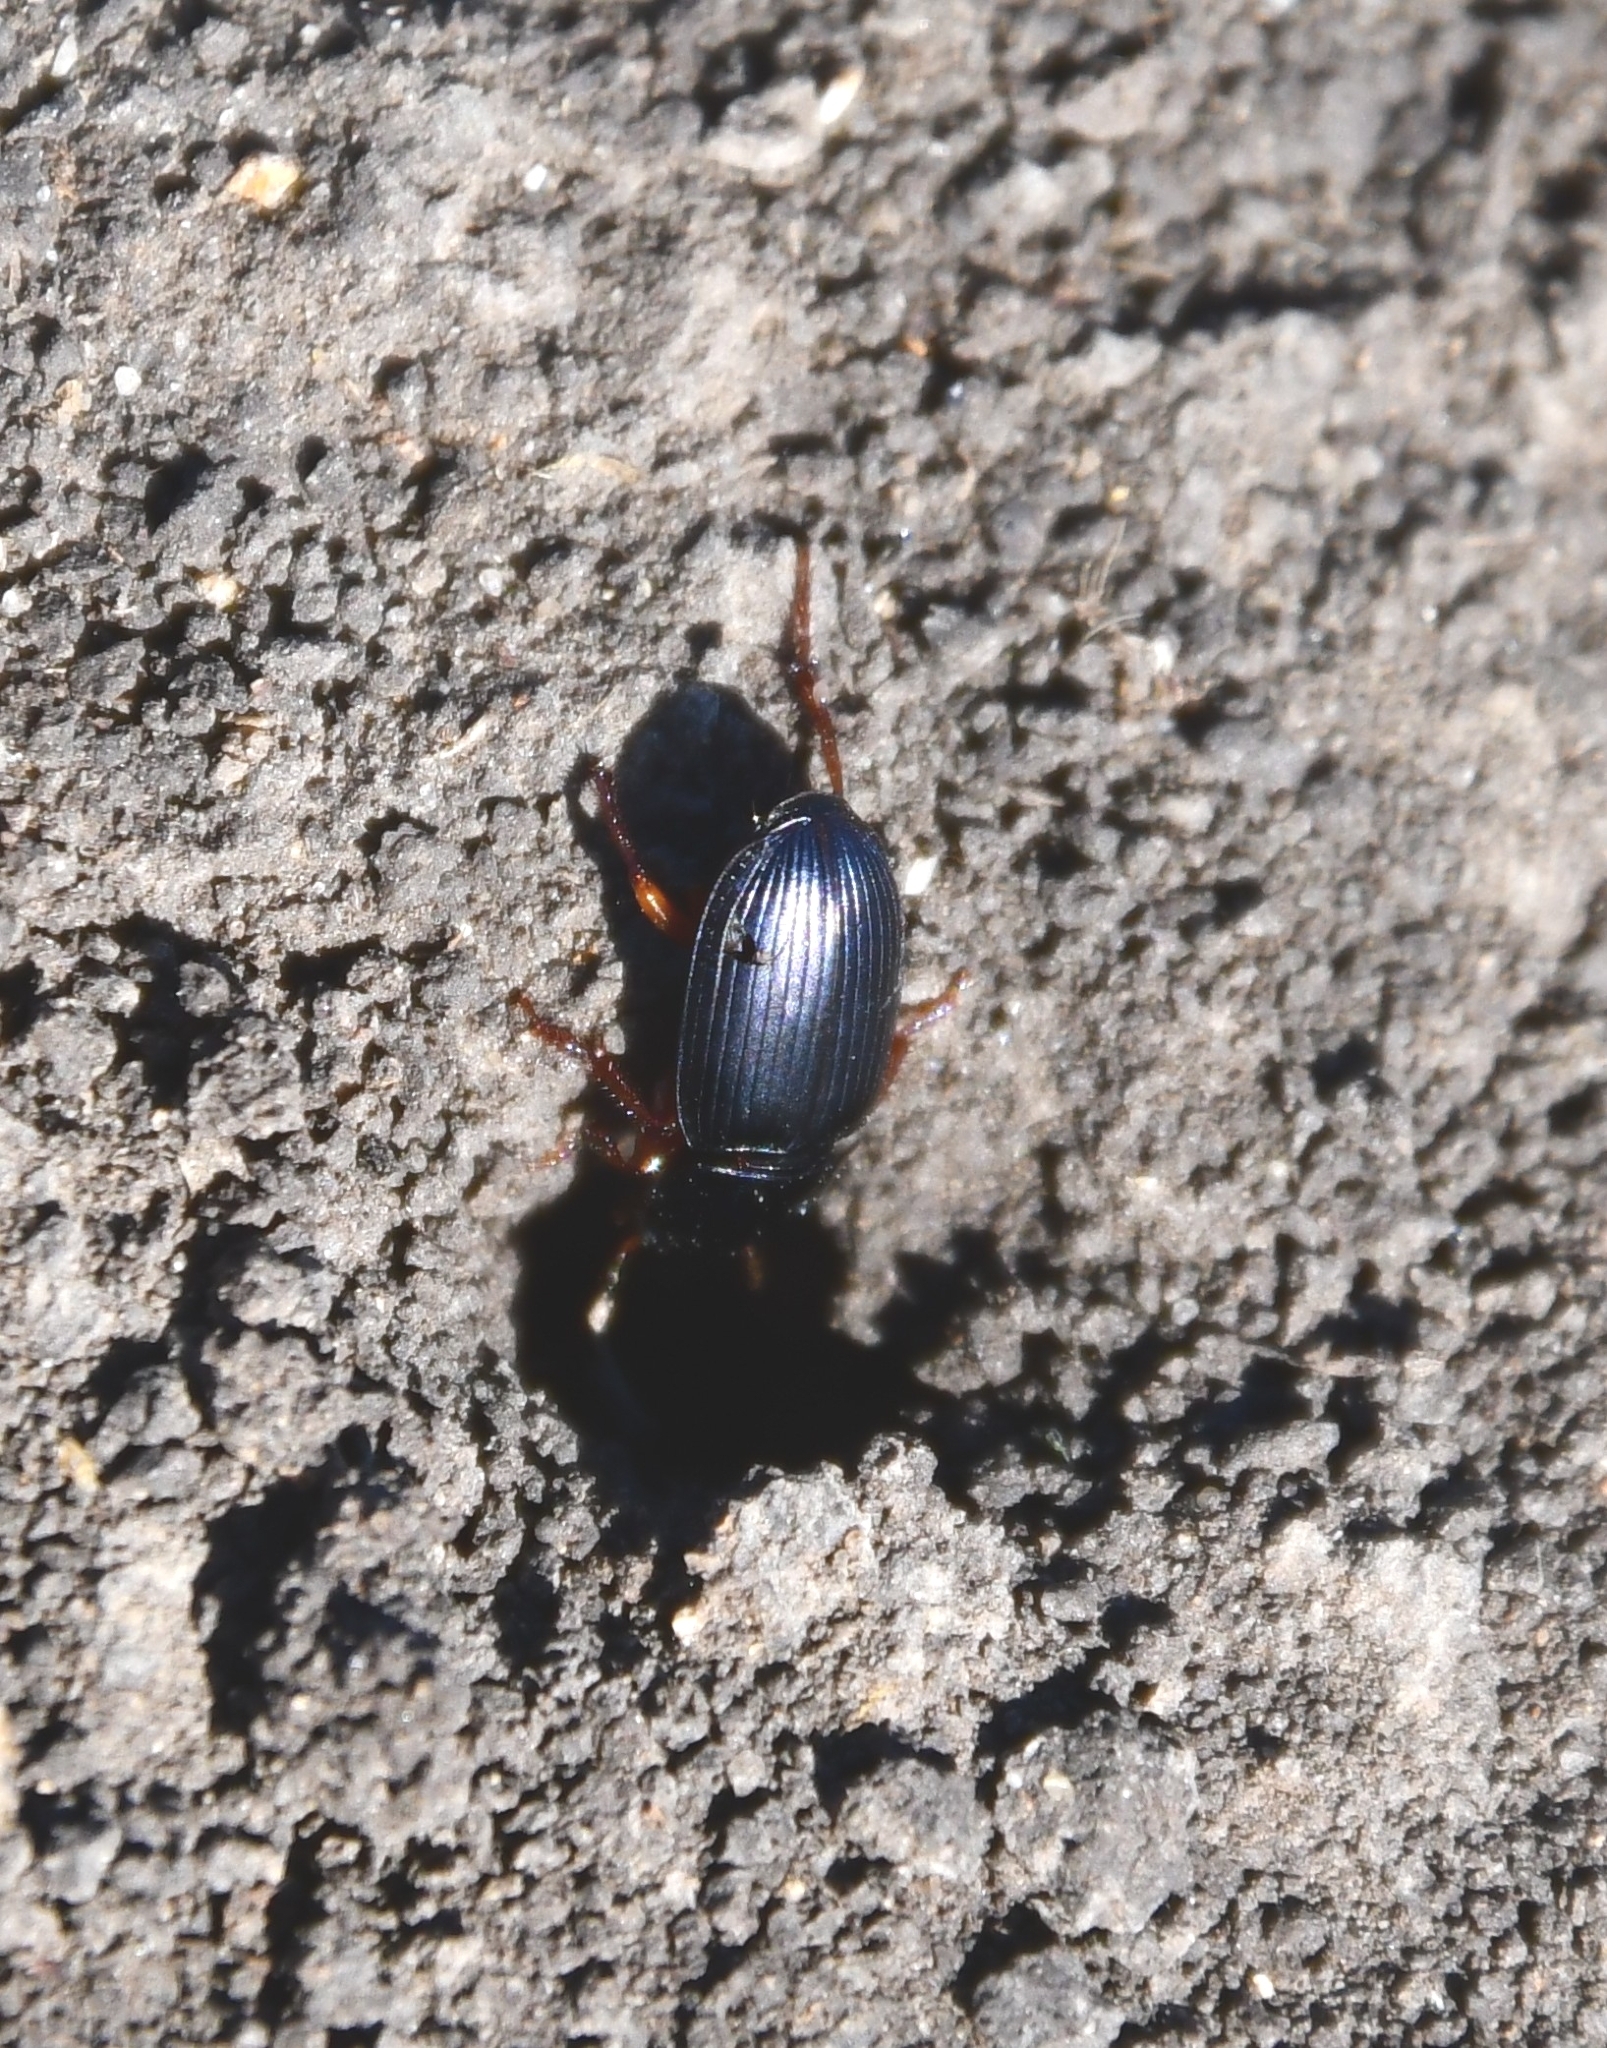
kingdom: Animalia
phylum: Arthropoda
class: Insecta
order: Coleoptera
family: Carabidae
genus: Harpalus
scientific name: Harpalus rubripes
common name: Red-legged harp ground beetle
